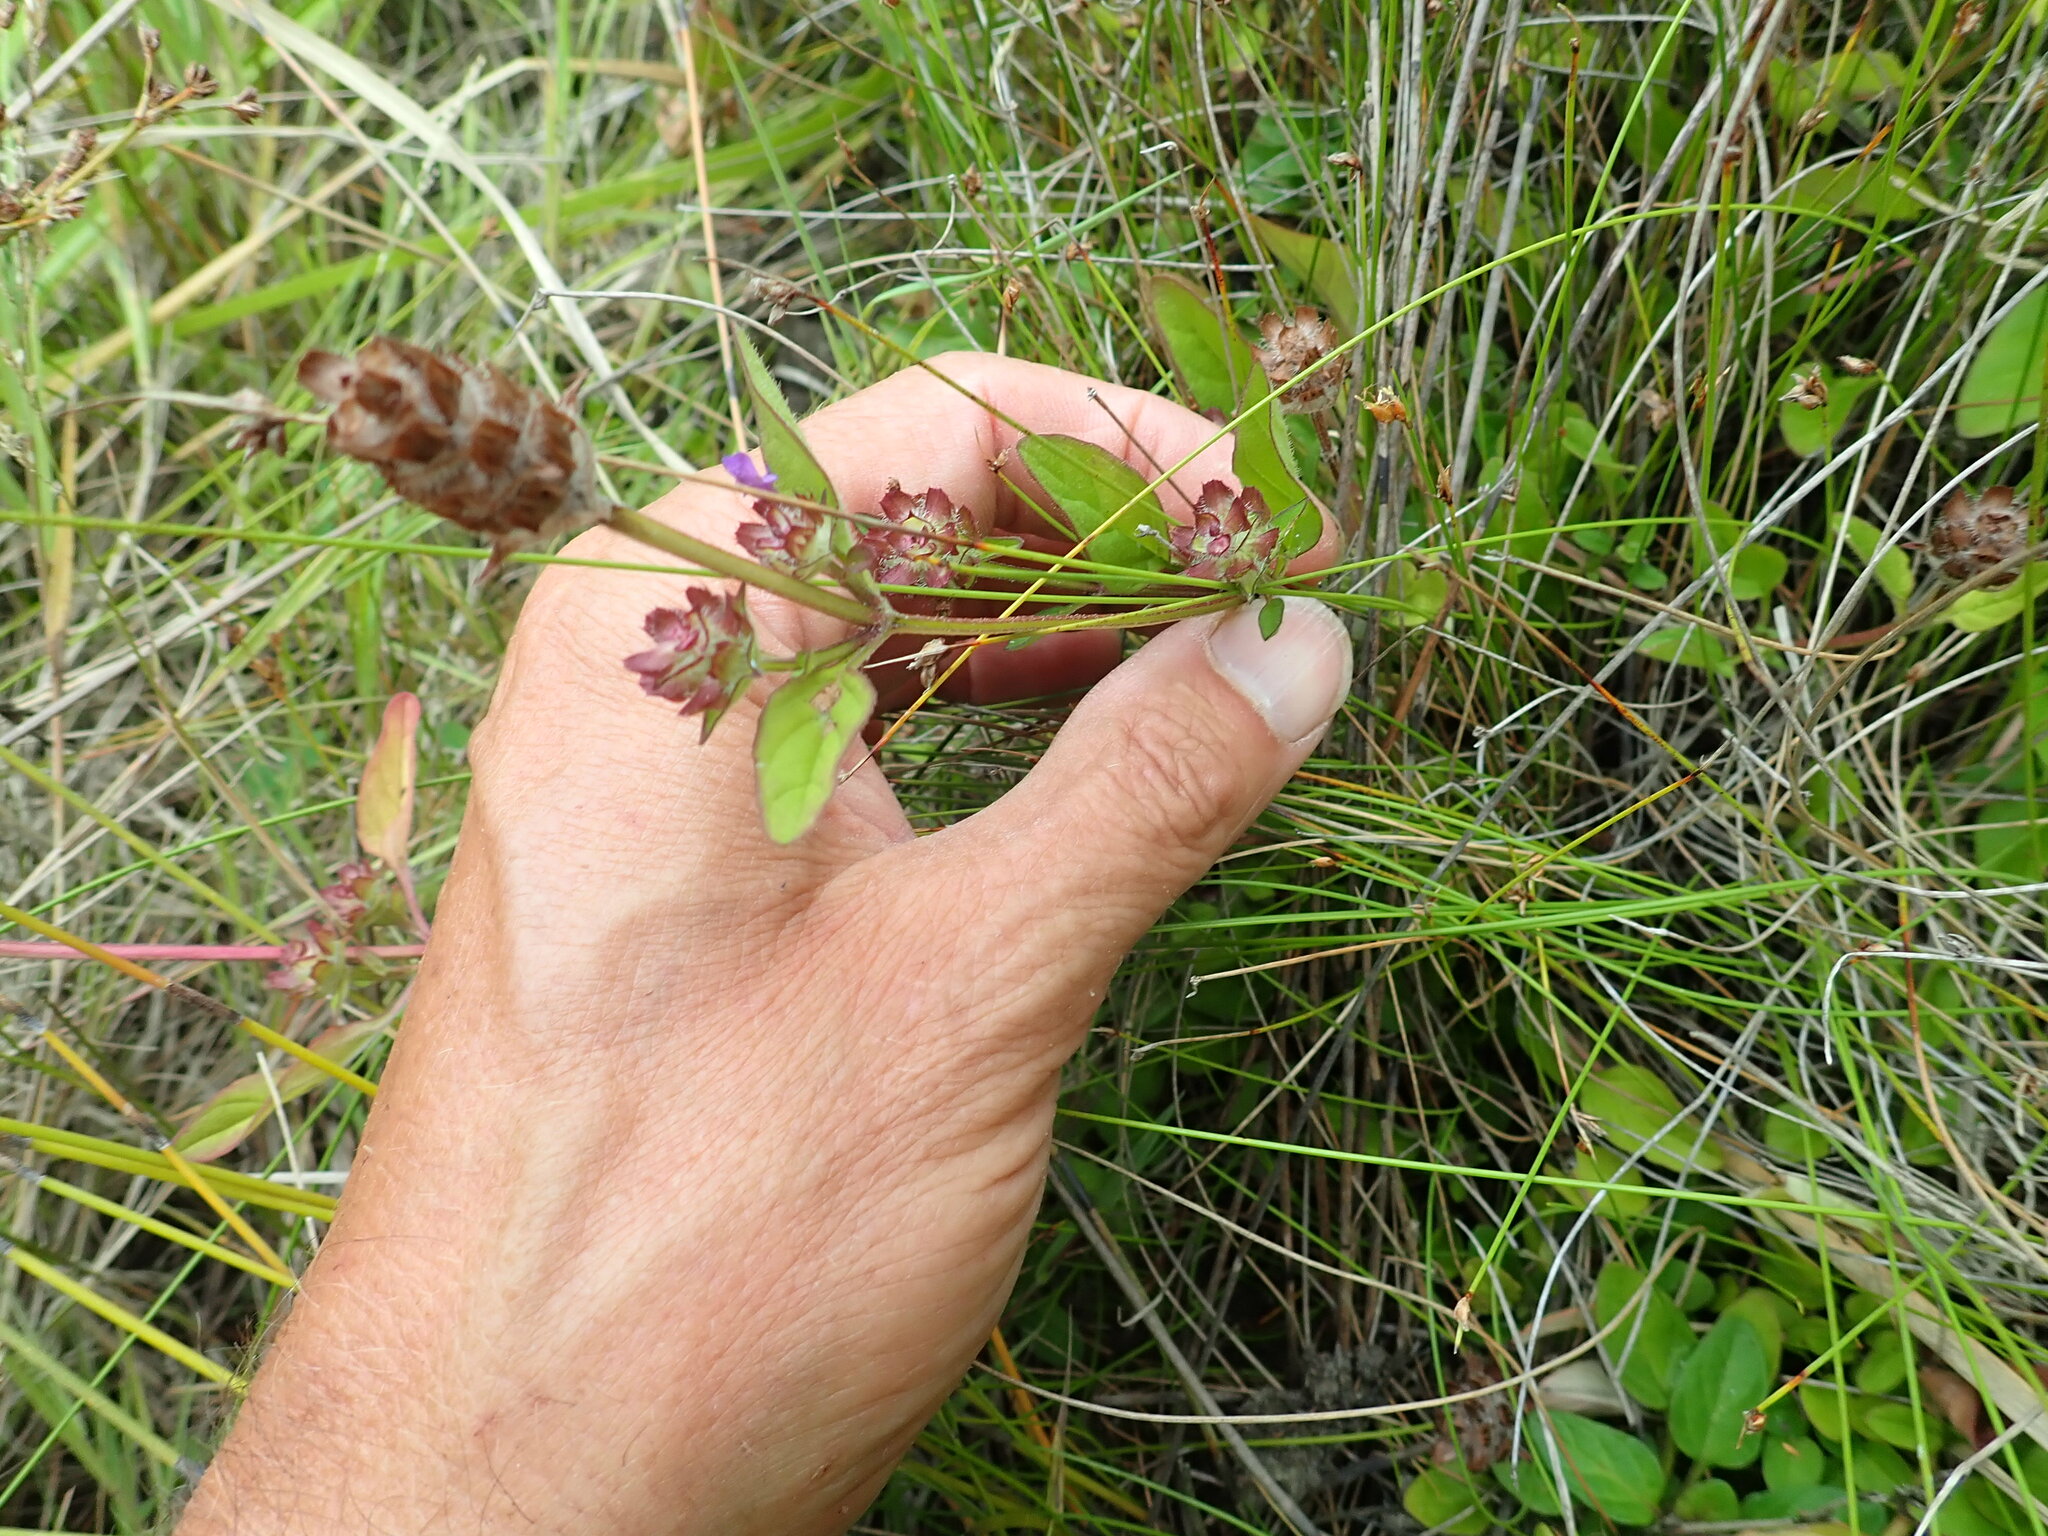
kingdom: Plantae
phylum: Tracheophyta
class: Magnoliopsida
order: Lamiales
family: Lamiaceae
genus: Prunella
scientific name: Prunella vulgaris
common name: Heal-all
